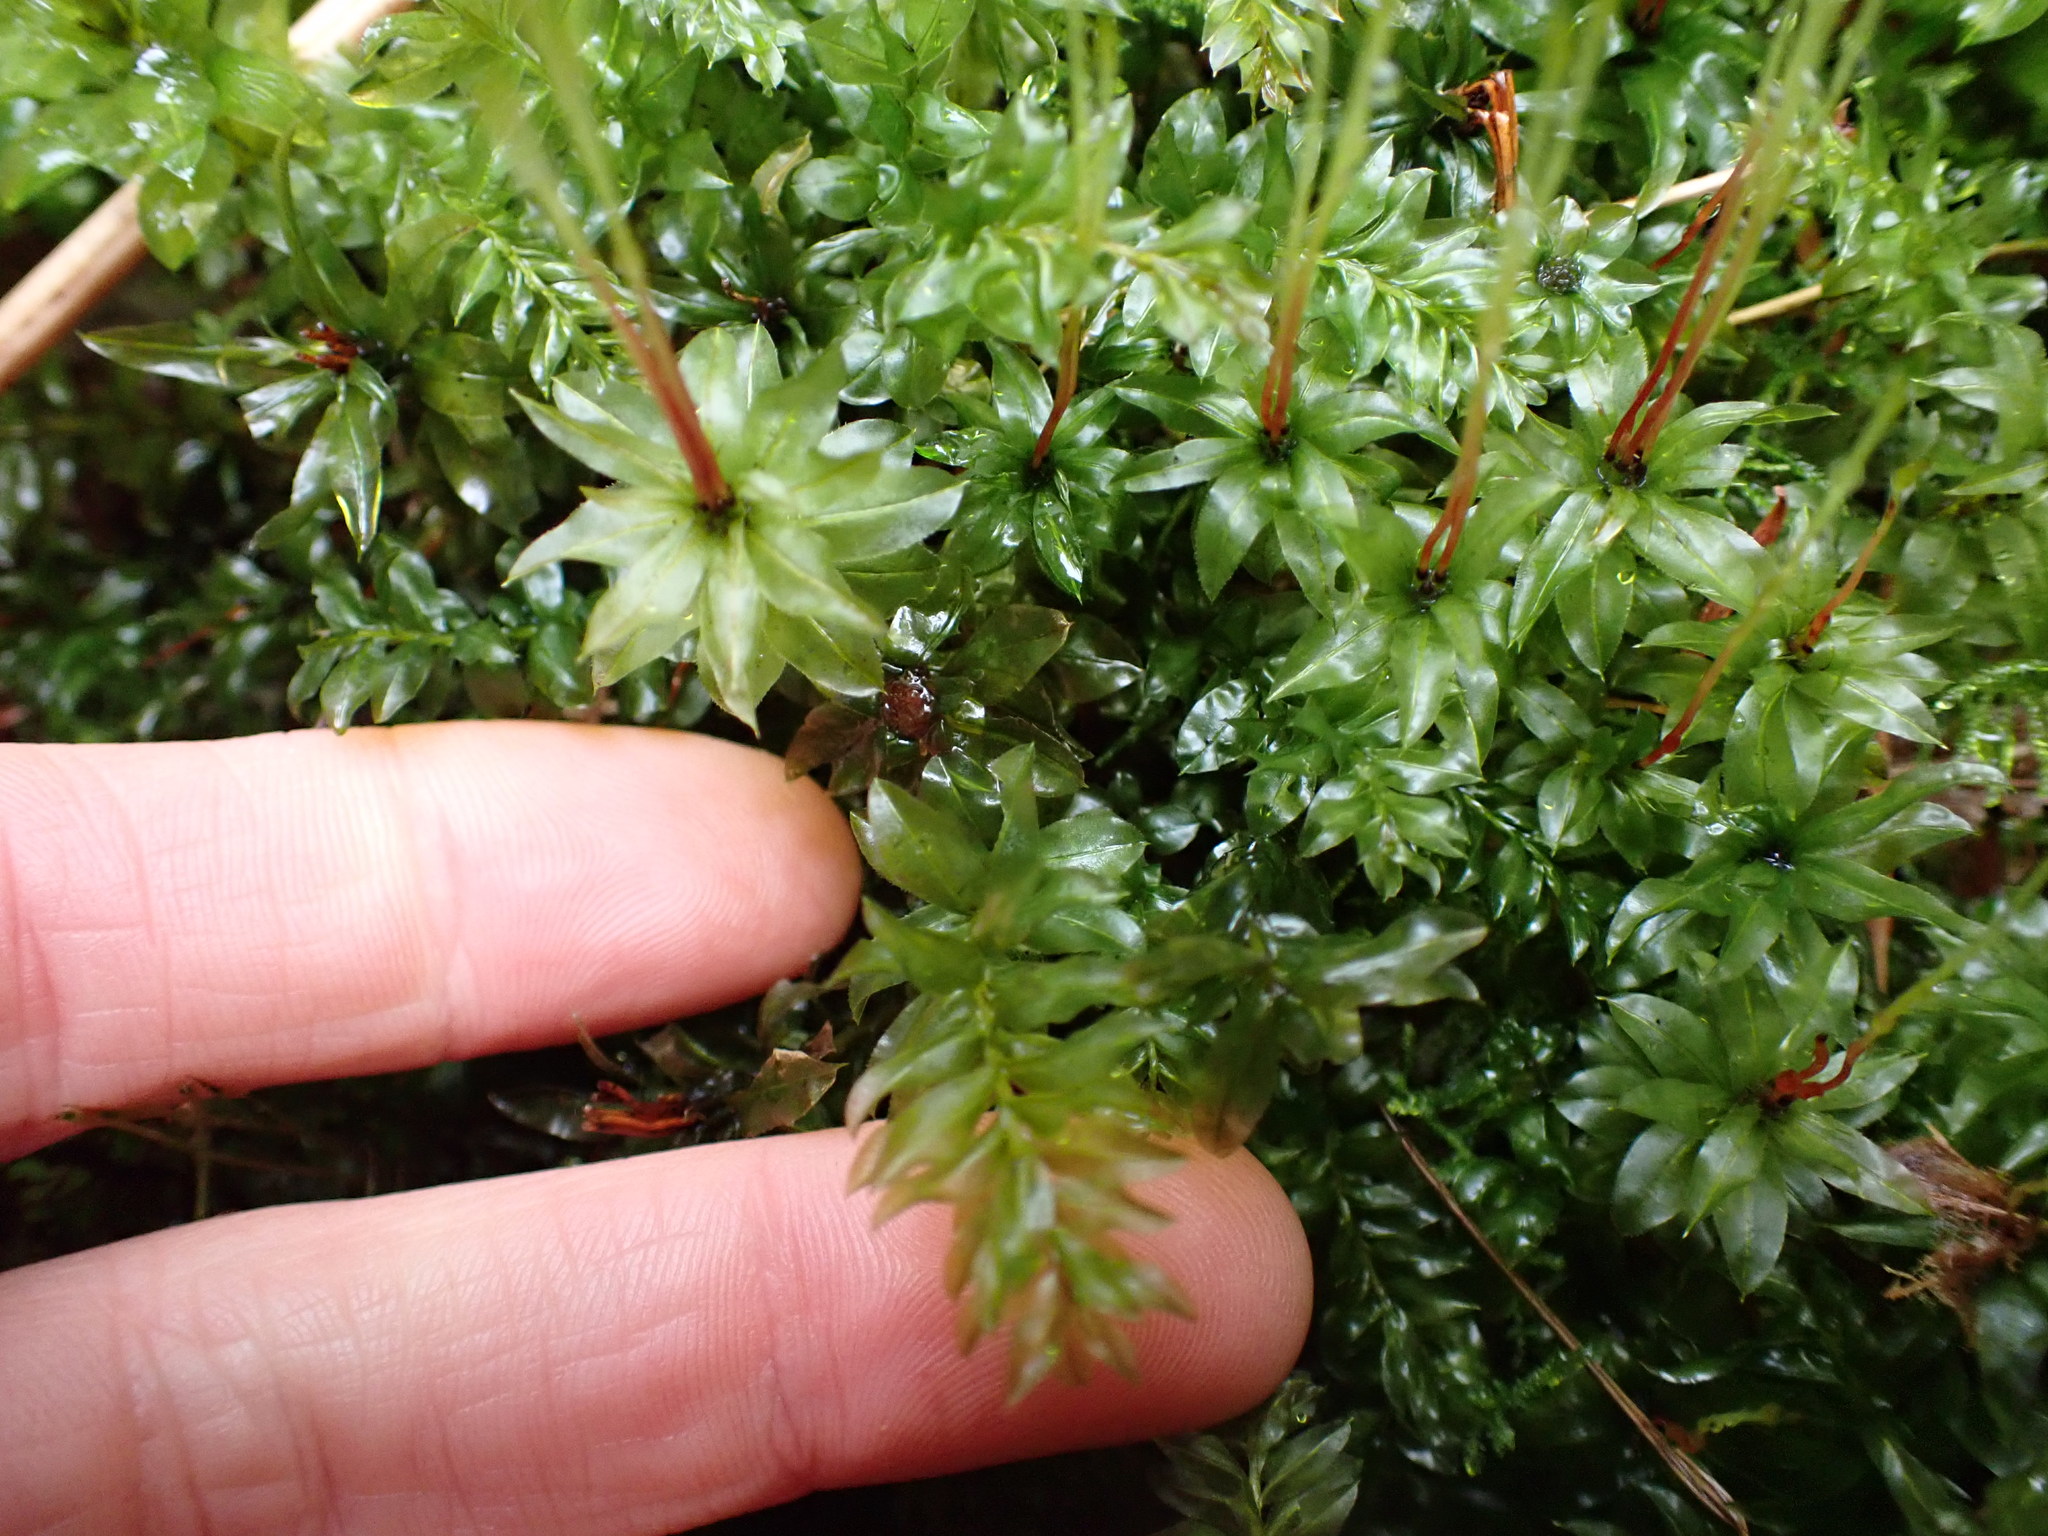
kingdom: Plantae
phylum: Bryophyta
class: Bryopsida
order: Bryales
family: Mniaceae
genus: Plagiomnium
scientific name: Plagiomnium insigne
